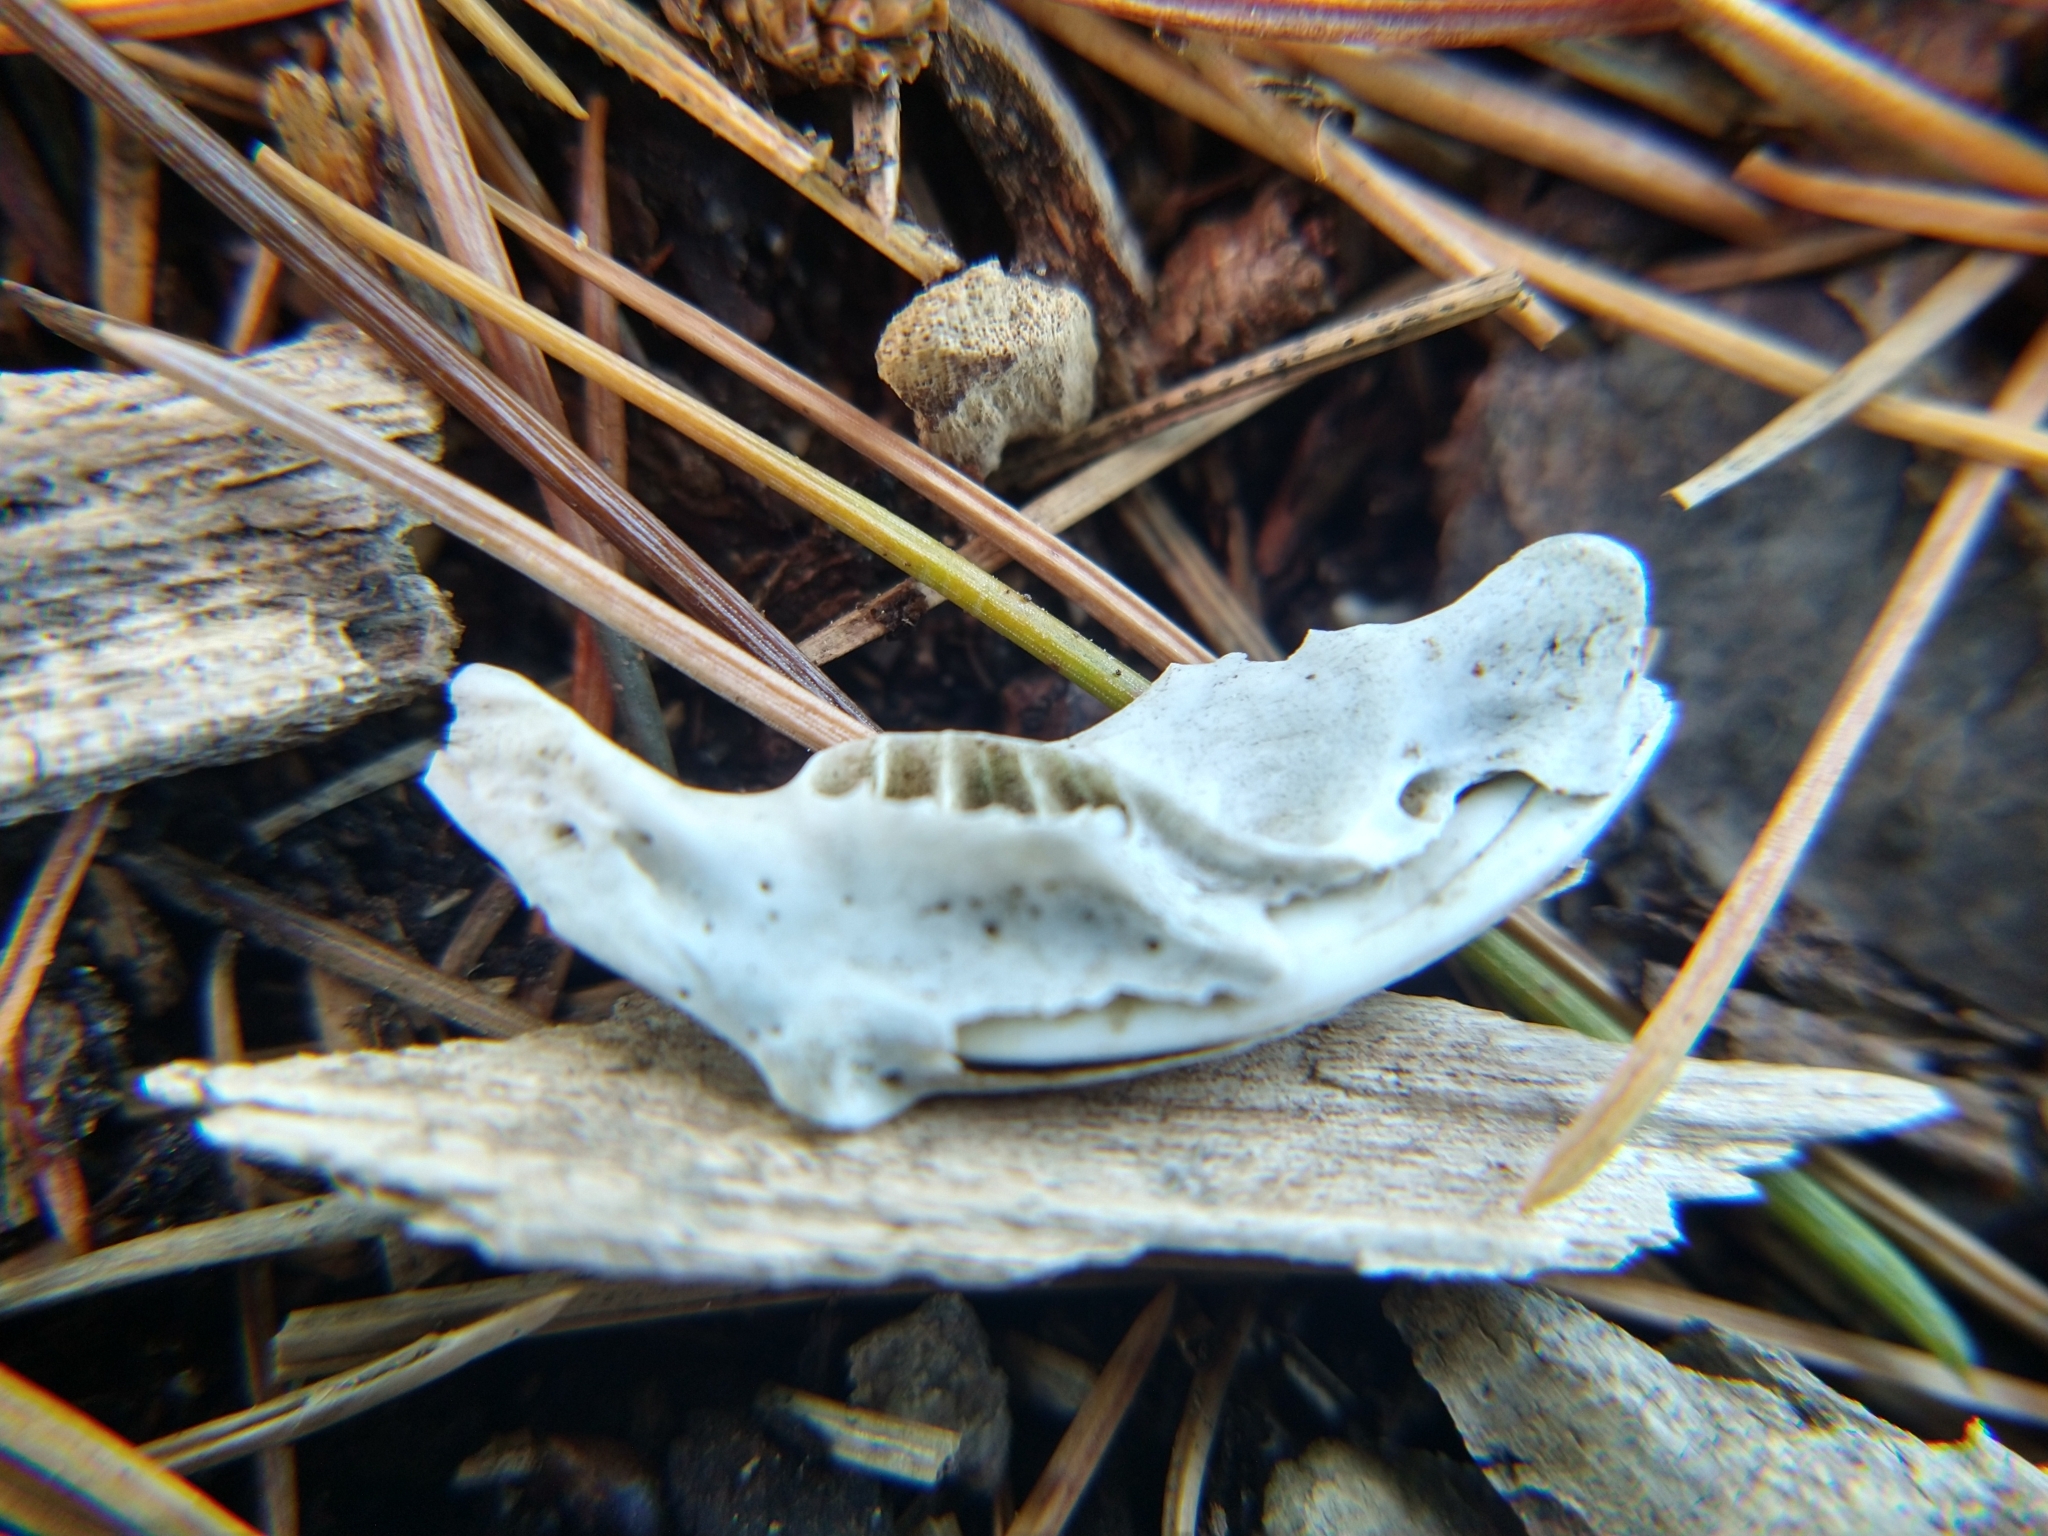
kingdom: Animalia
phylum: Chordata
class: Mammalia
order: Rodentia
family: Geomyidae
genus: Thomomys
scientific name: Thomomys bottae
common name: Botta's pocket gopher
